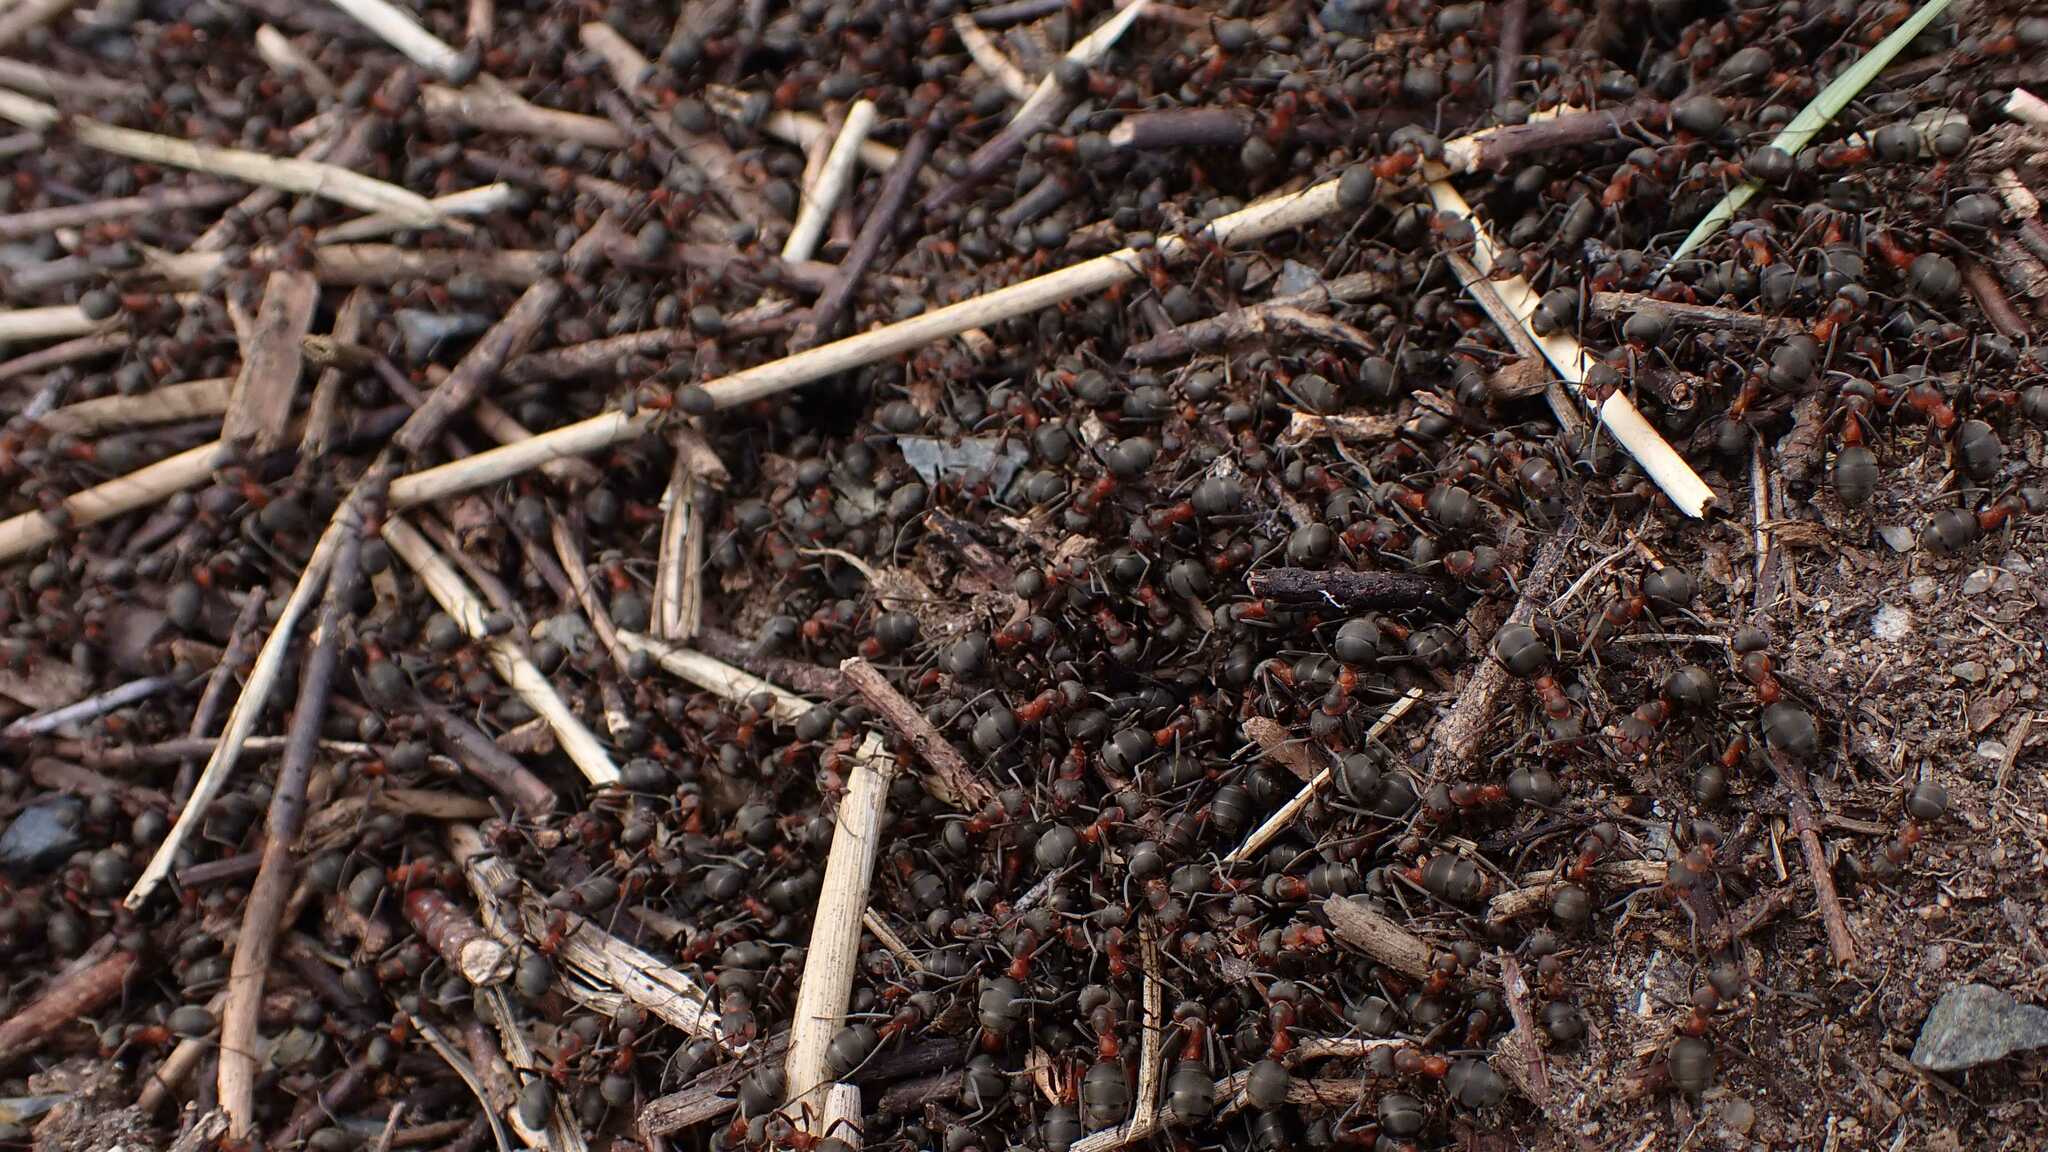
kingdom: Animalia
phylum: Arthropoda
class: Insecta
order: Hymenoptera
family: Formicidae
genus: Formica
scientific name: Formica pratensis
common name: European red wood ant
